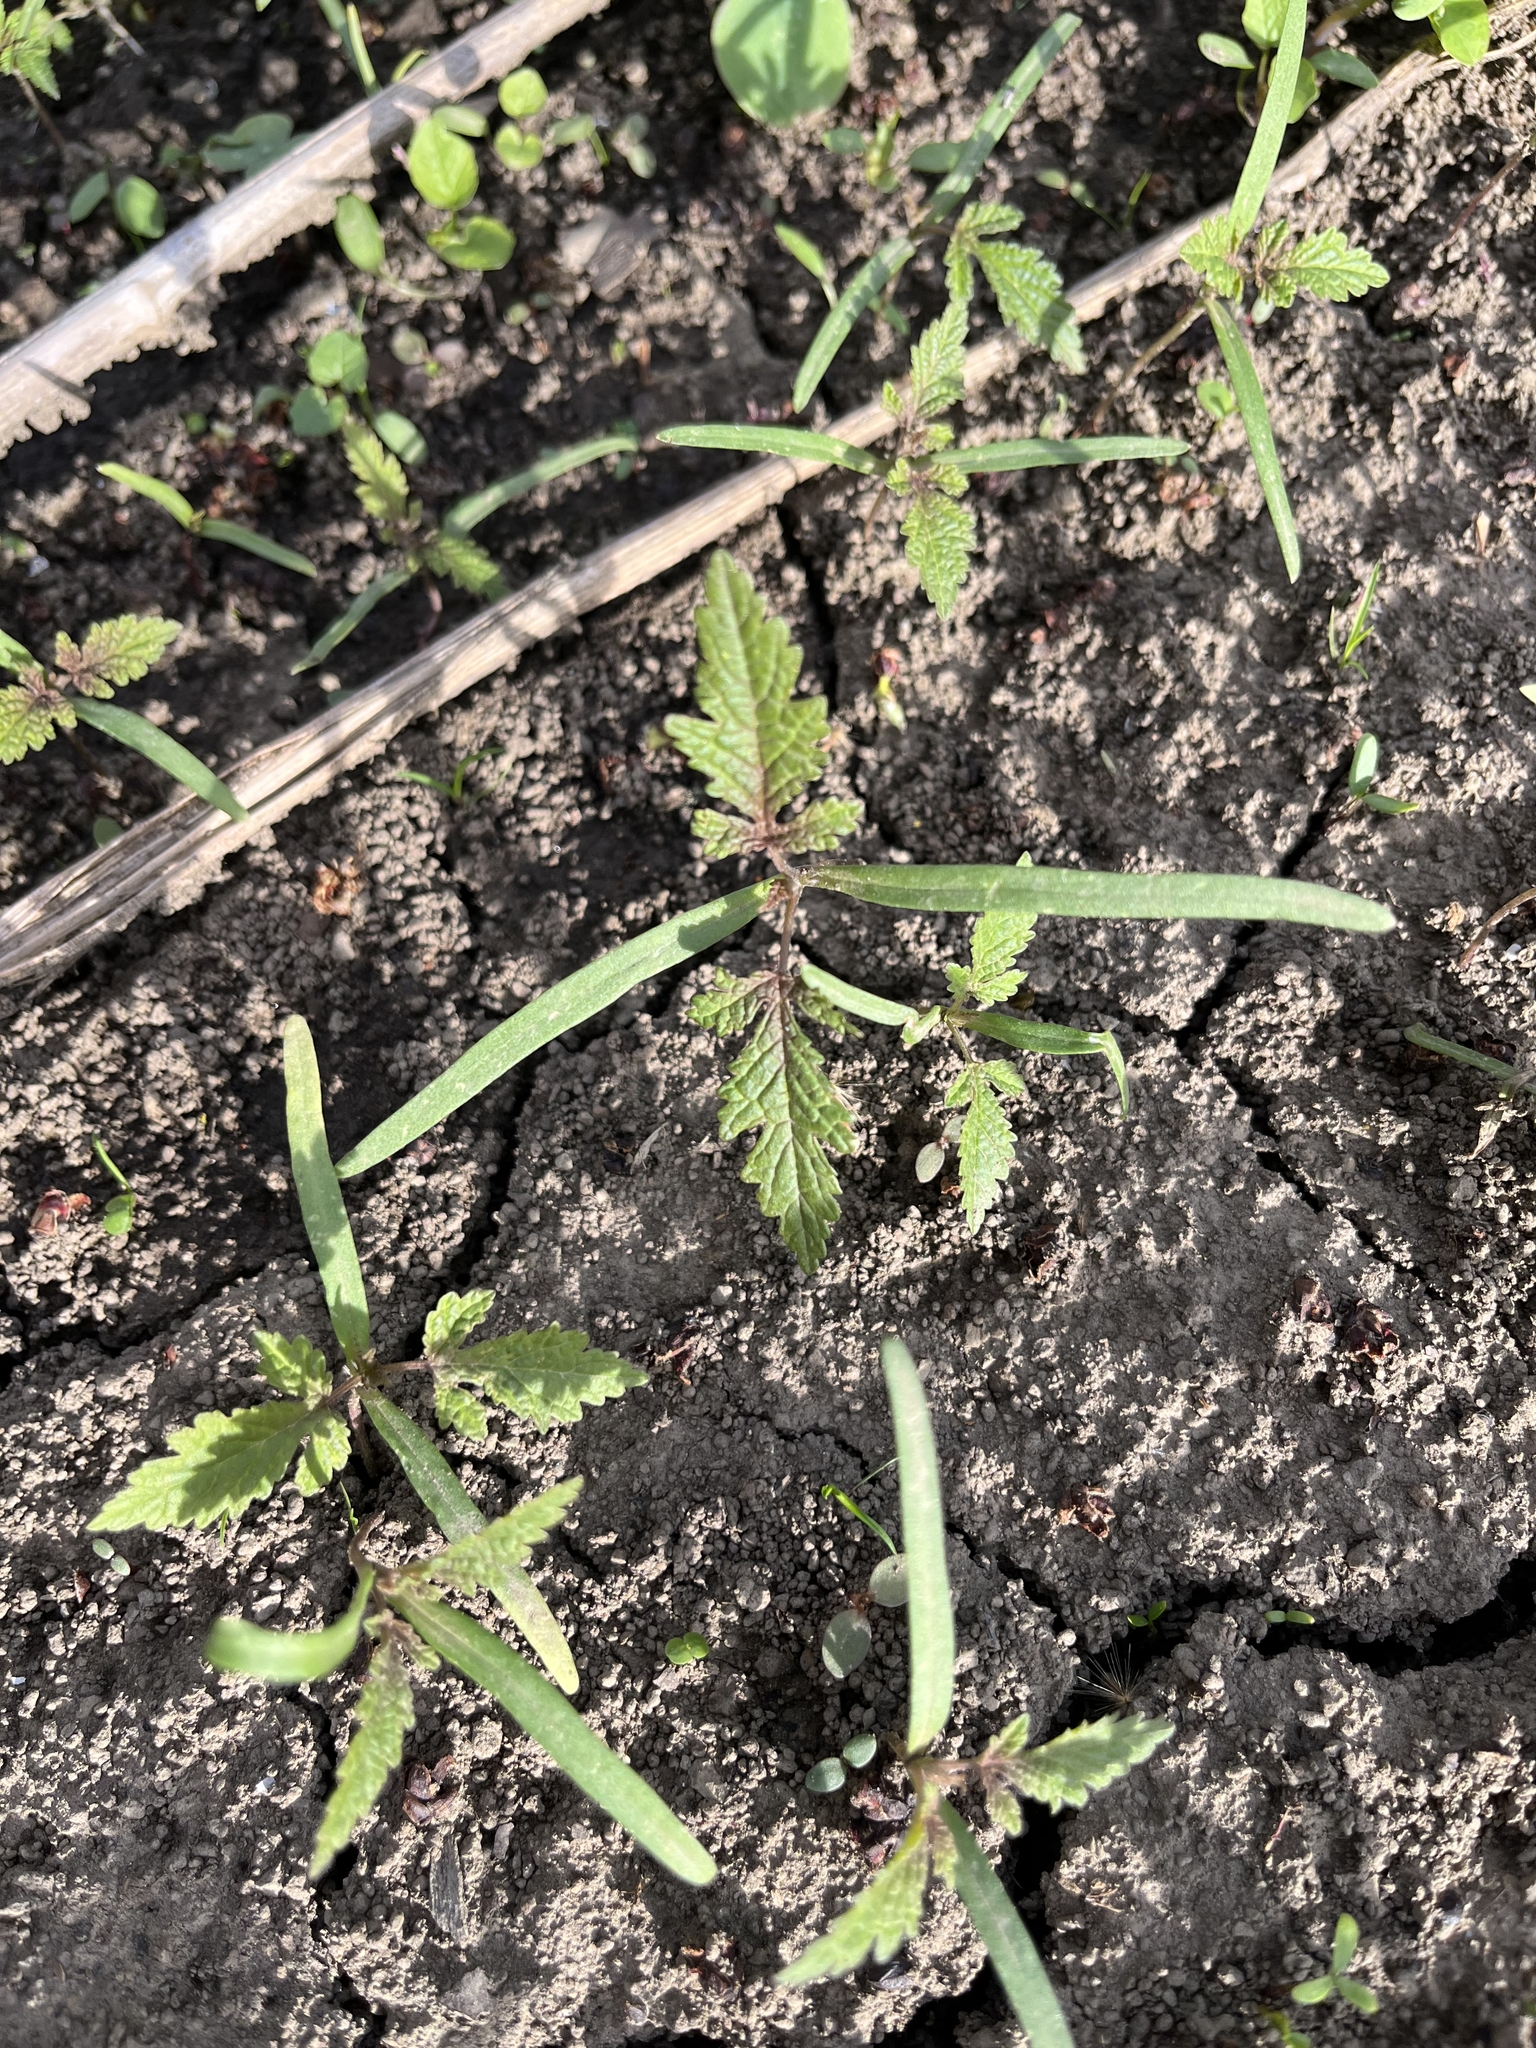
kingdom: Plantae
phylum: Tracheophyta
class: Magnoliopsida
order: Rosales
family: Cannabaceae
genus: Humulus
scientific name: Humulus scandens
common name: Japanese hop
